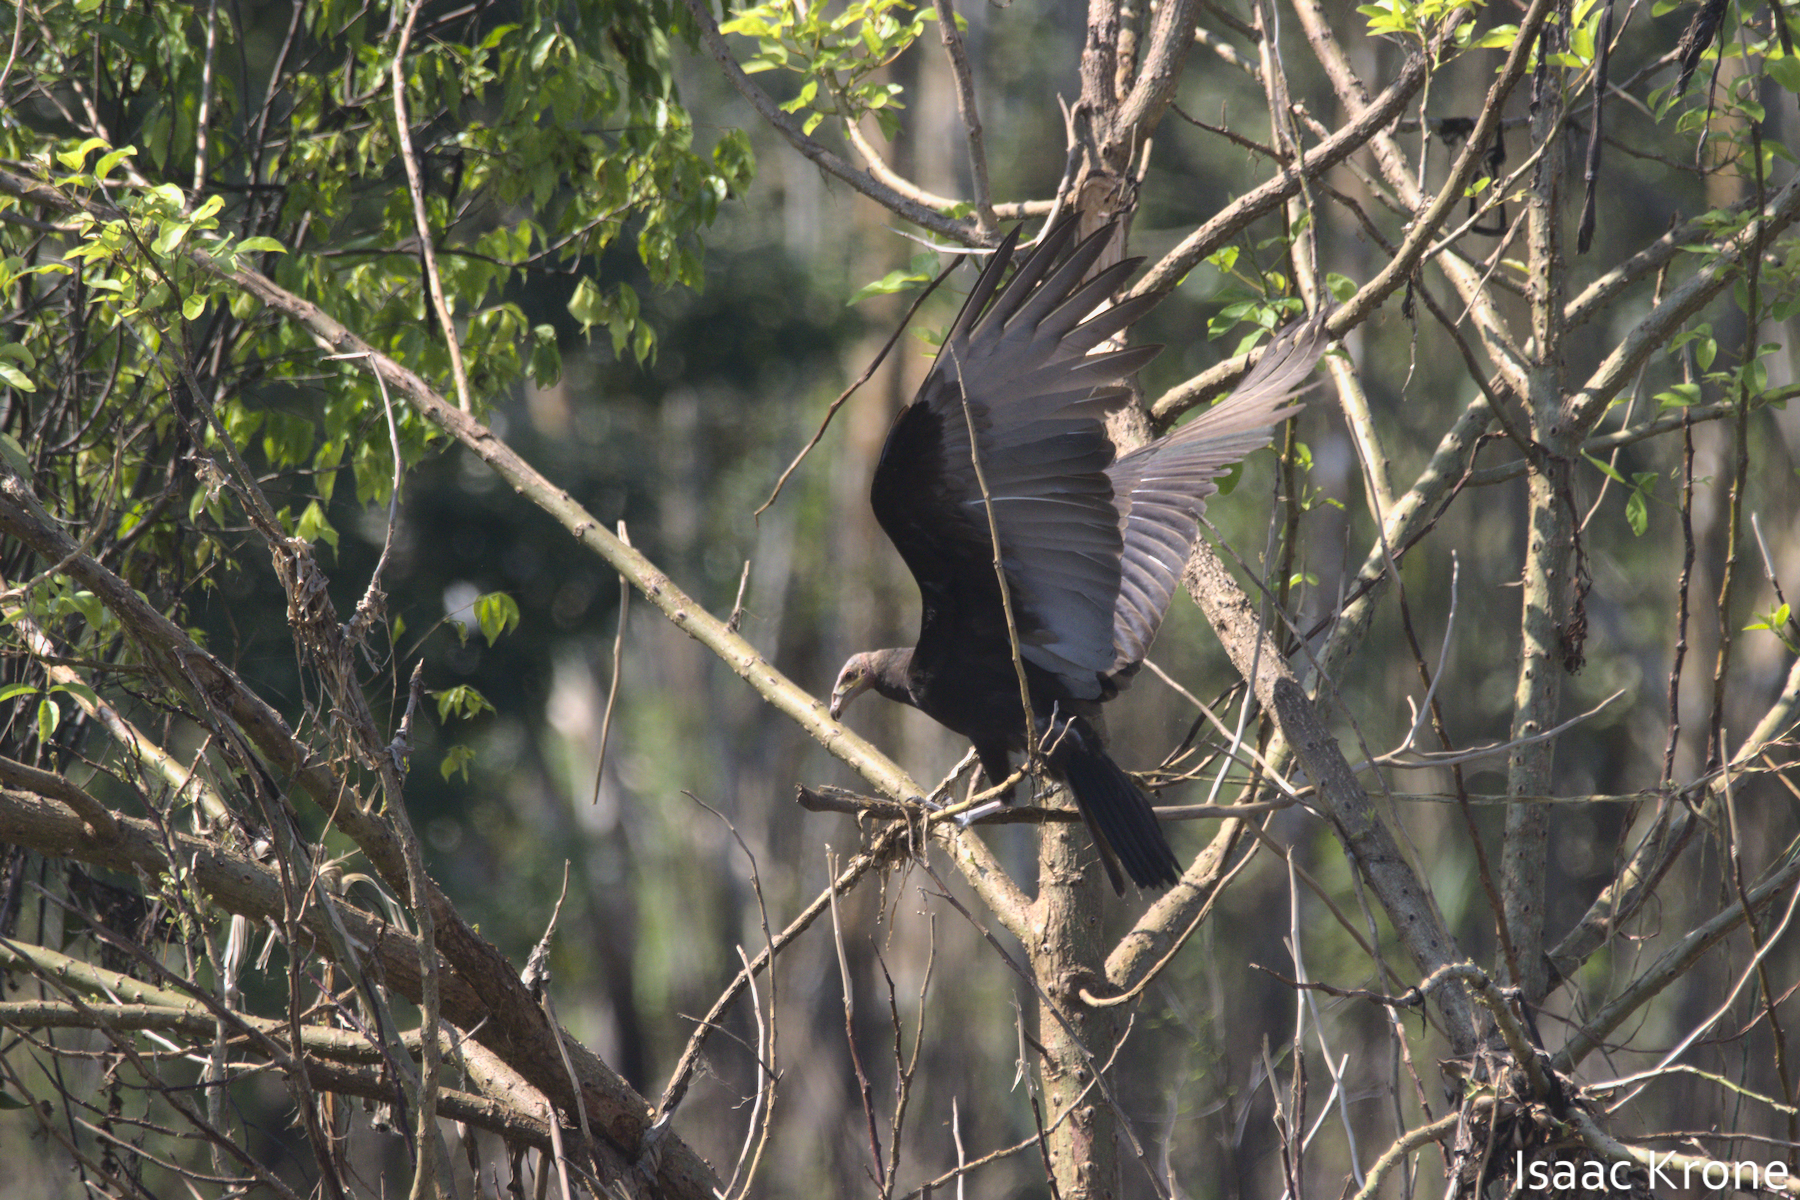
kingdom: Animalia
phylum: Chordata
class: Aves
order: Accipitriformes
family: Cathartidae
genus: Cathartes
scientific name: Cathartes burrovianus
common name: Lesser yellow-headed vulture
